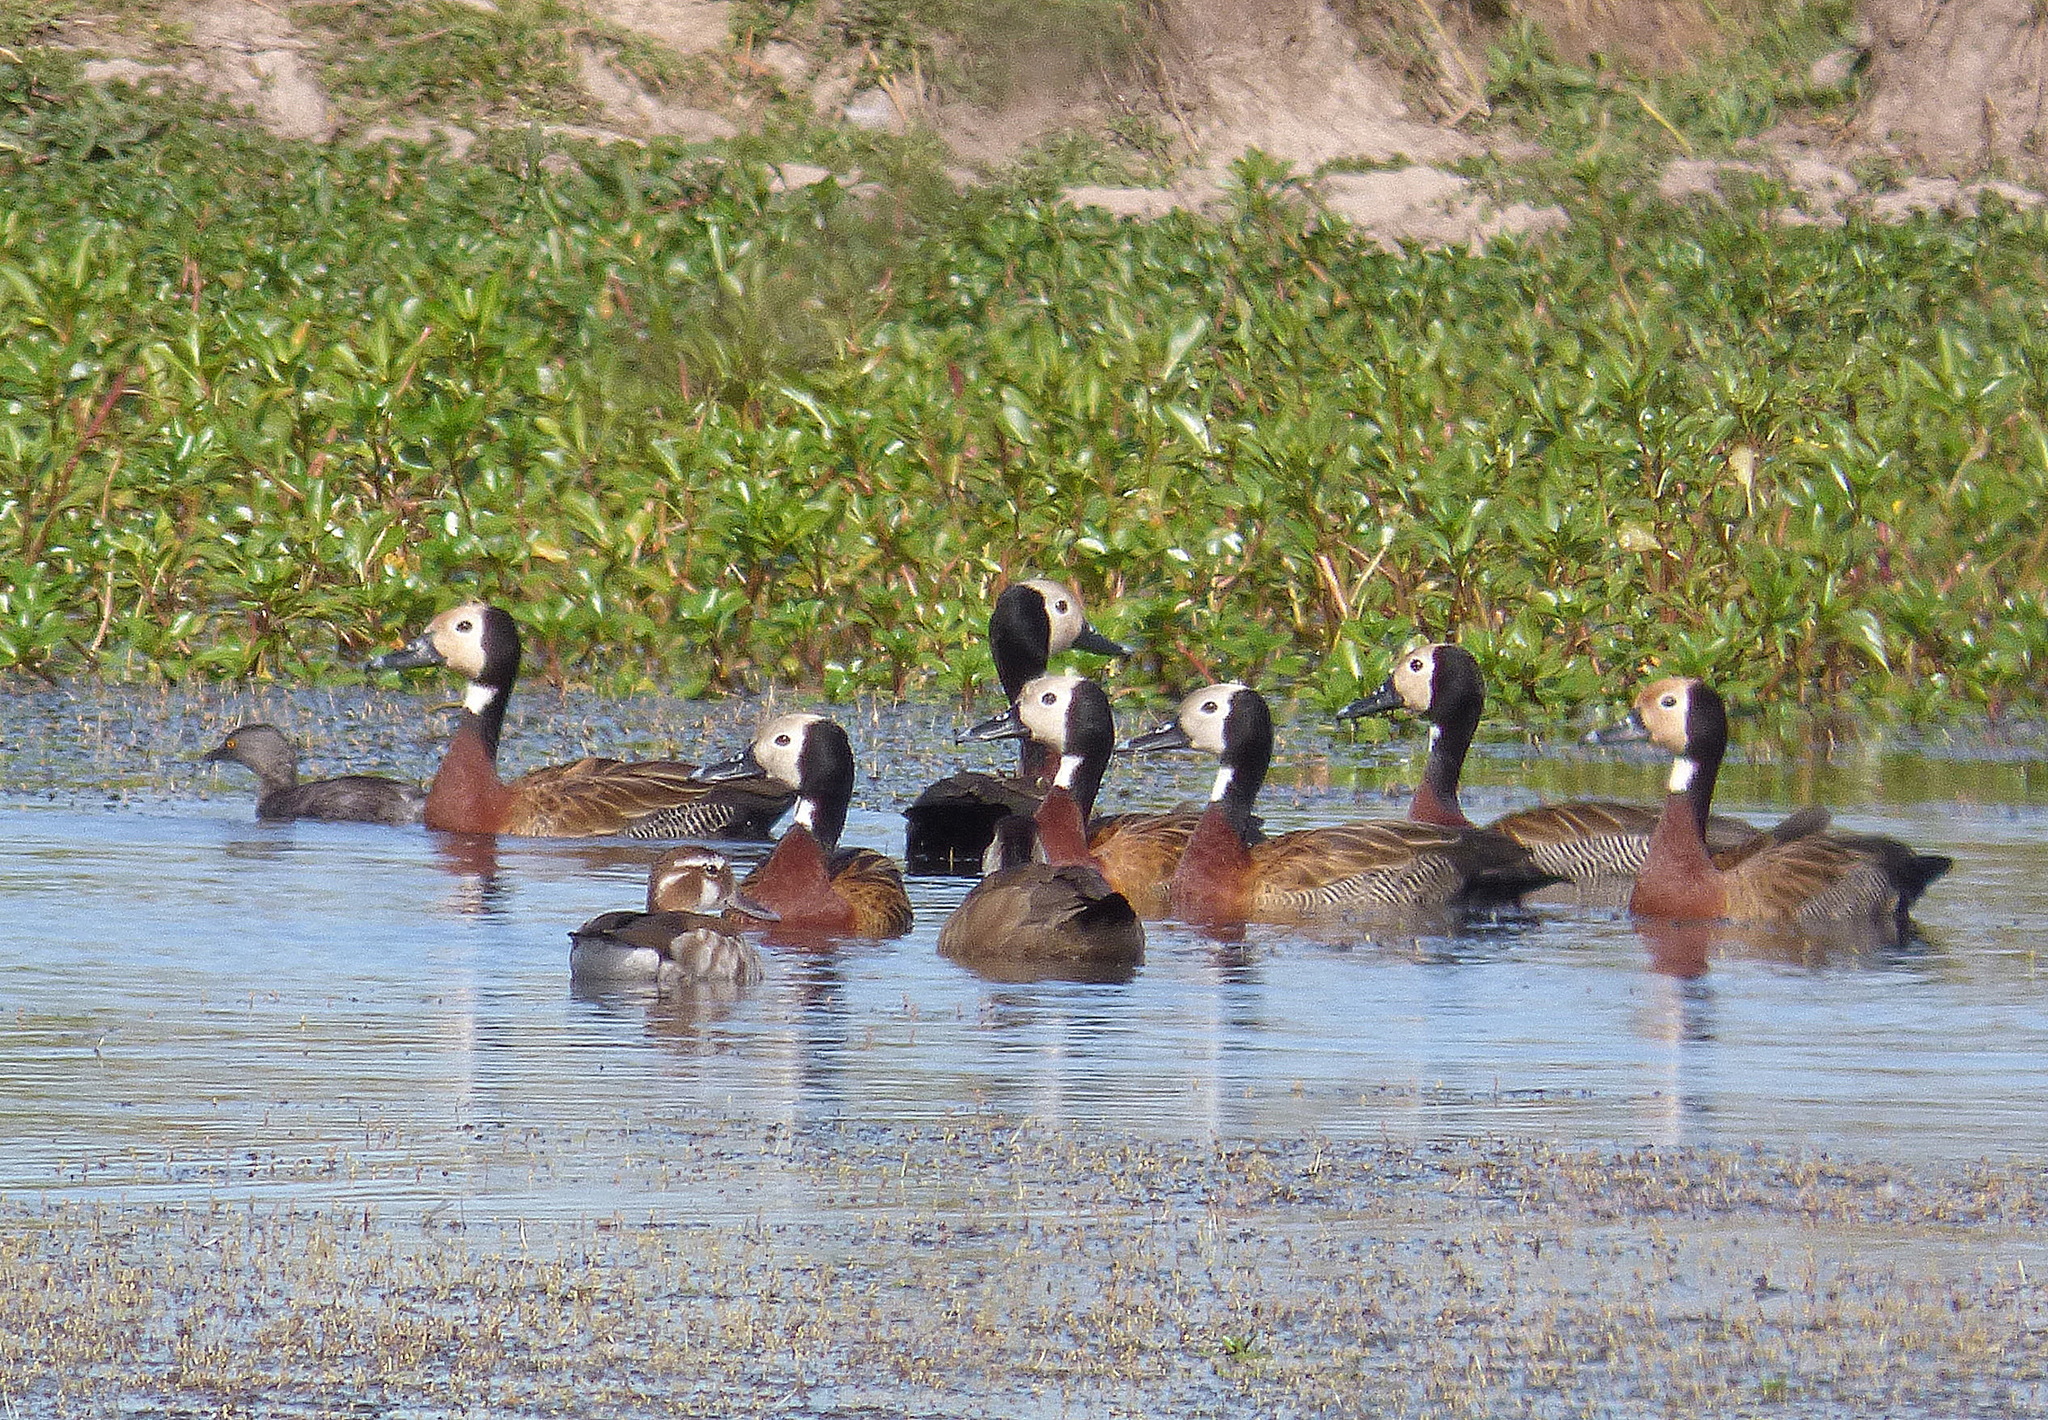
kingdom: Animalia
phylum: Chordata
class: Aves
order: Anseriformes
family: Anatidae
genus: Dendrocygna
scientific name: Dendrocygna viduata
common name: White-faced whistling duck
